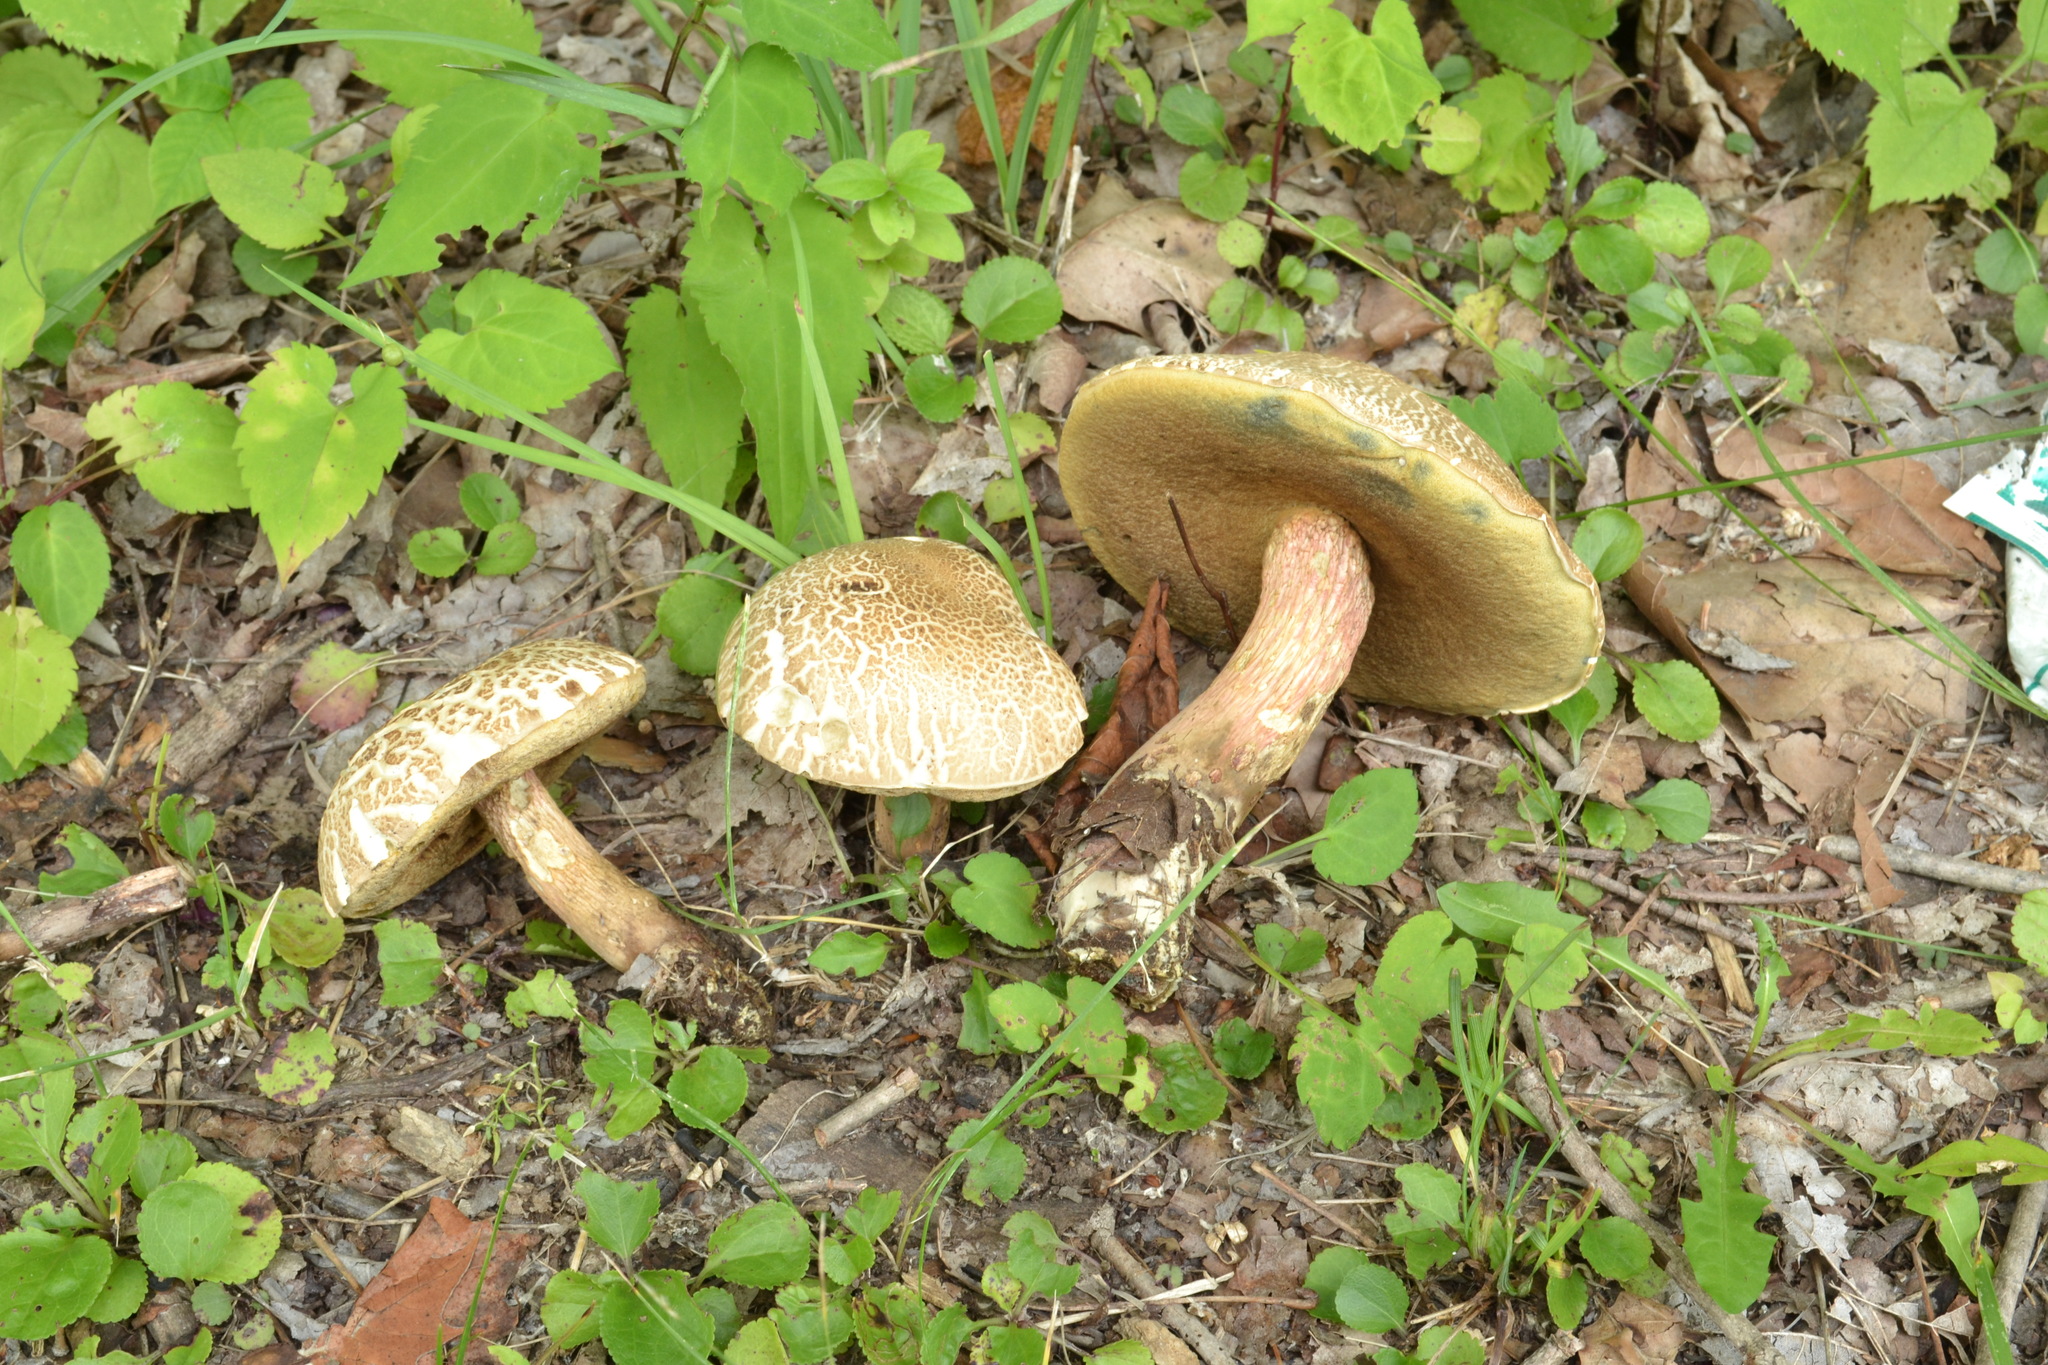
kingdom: Fungi
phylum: Basidiomycota
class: Agaricomycetes
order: Boletales
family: Boletaceae
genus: Caloboletus
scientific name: Caloboletus inedulis
